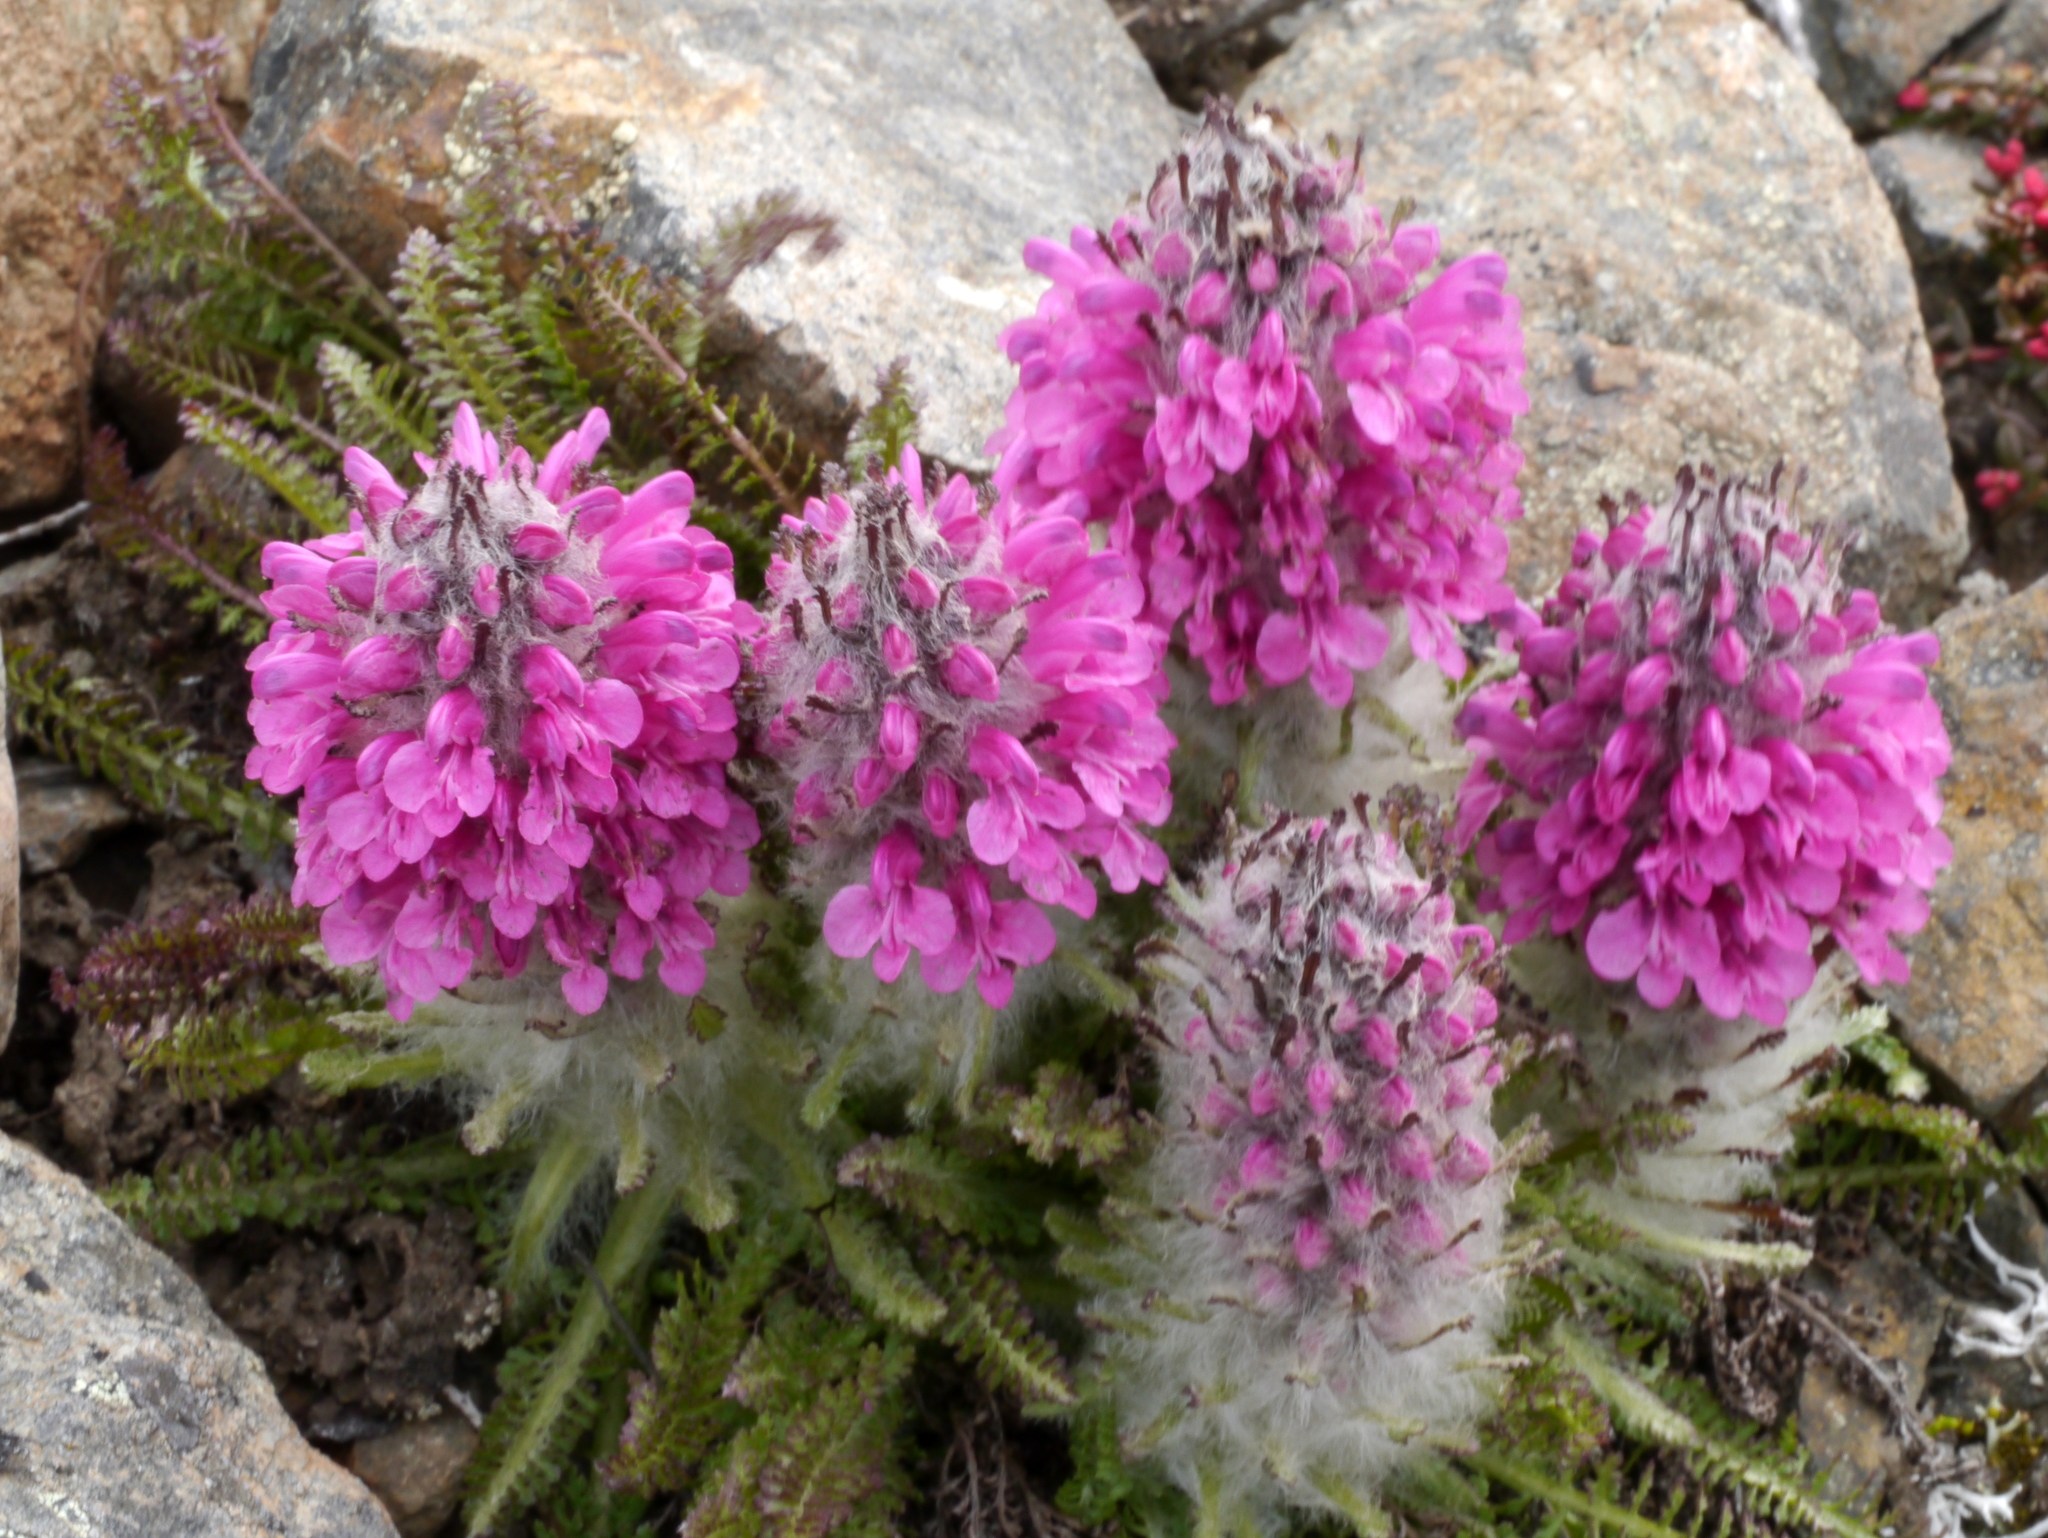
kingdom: Plantae
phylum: Tracheophyta
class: Magnoliopsida
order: Lamiales
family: Orobanchaceae
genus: Pedicularis
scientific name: Pedicularis lanata
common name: Woolly lousewort
